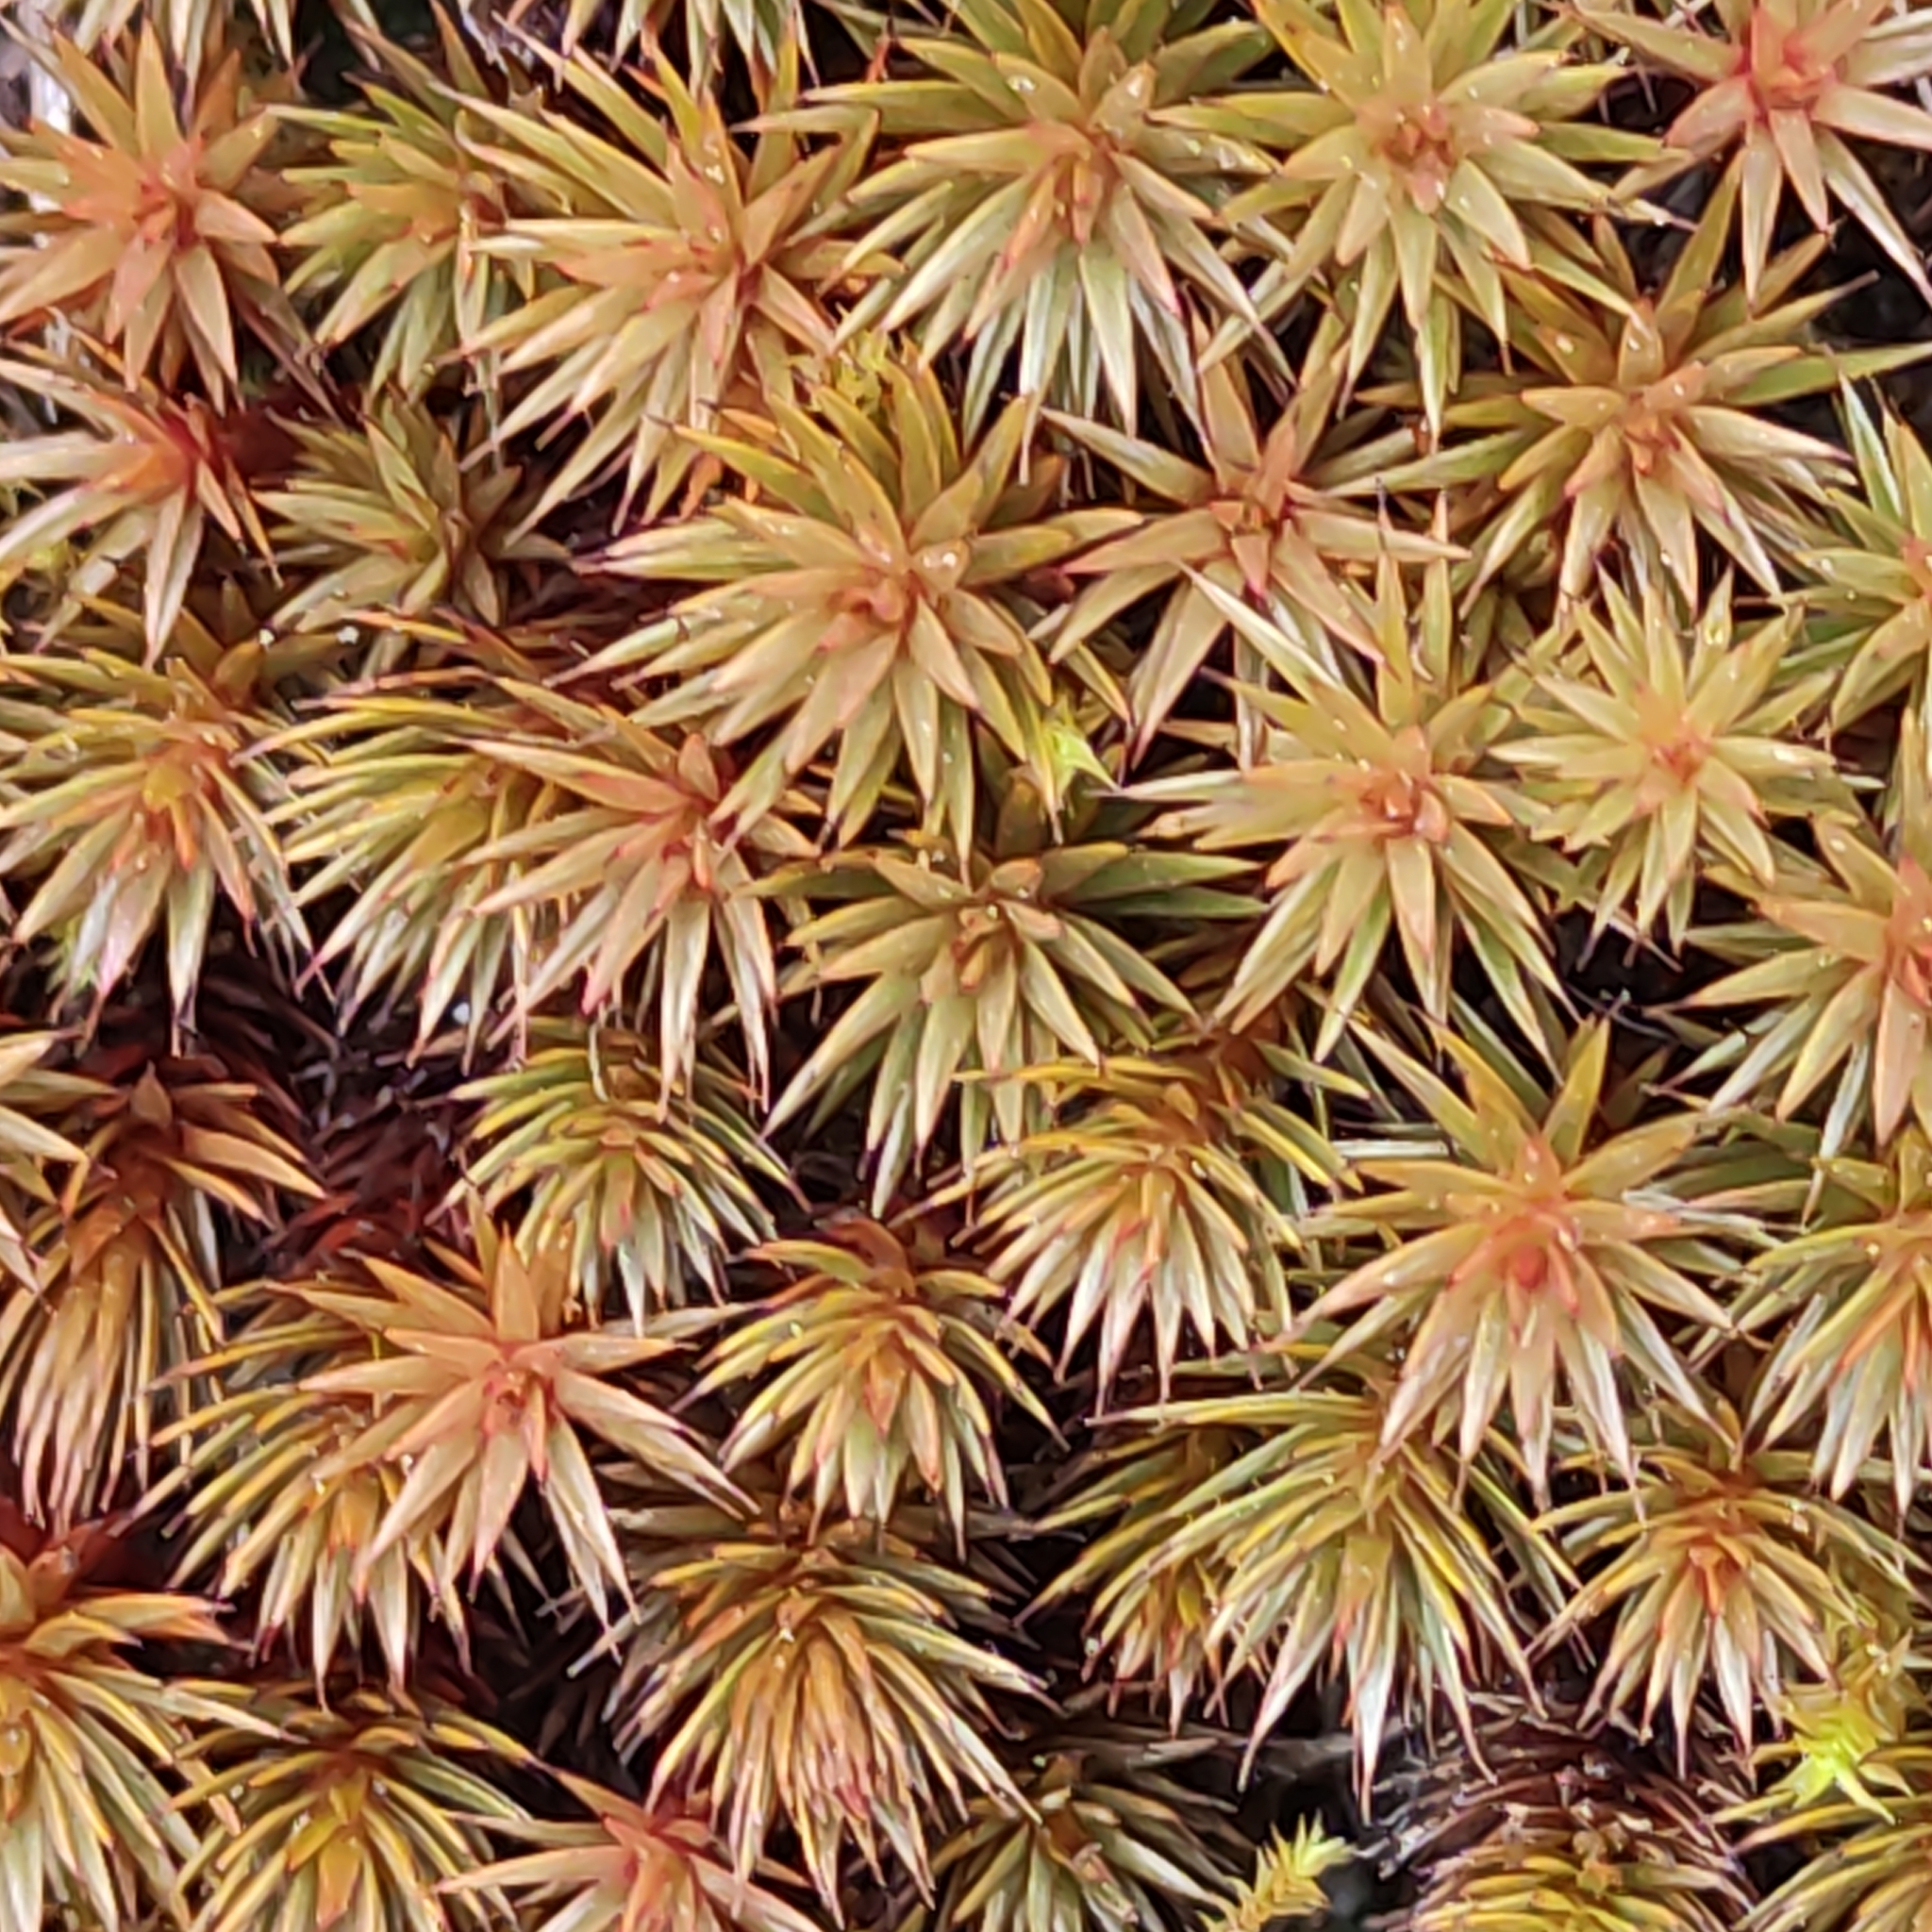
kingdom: Plantae
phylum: Bryophyta
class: Polytrichopsida
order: Polytrichales
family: Polytrichaceae
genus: Polytrichum
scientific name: Polytrichum juniperinum
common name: Juniper haircap moss
